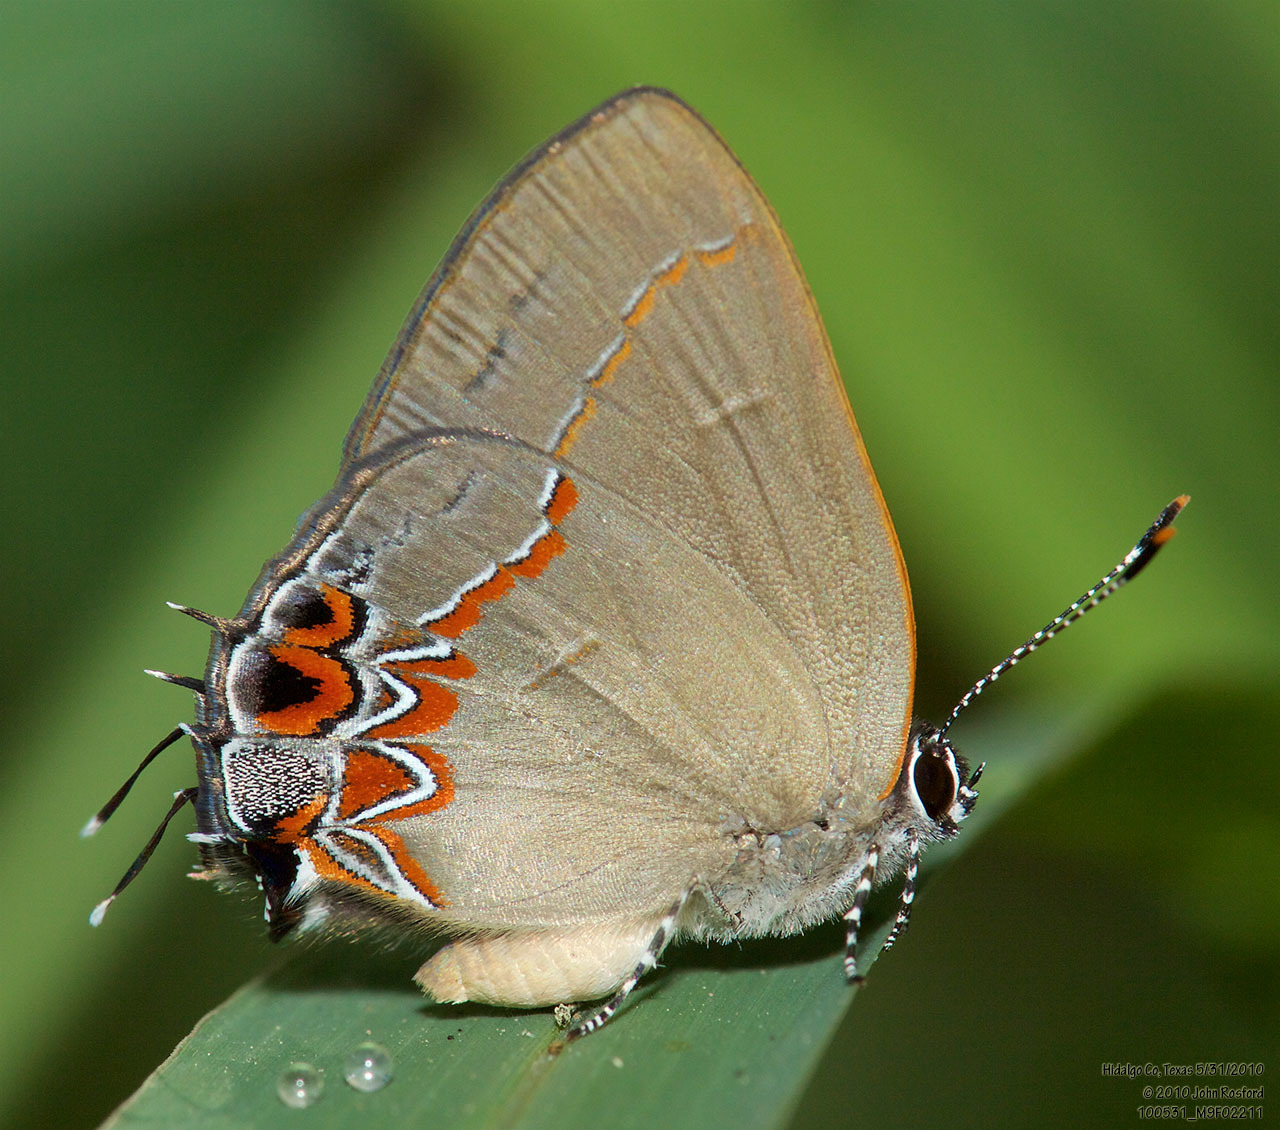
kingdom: Animalia
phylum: Arthropoda
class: Insecta
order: Lepidoptera
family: Lycaenidae
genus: Calycopis
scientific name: Calycopis isobeon
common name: Dusky-blue groundstreak
